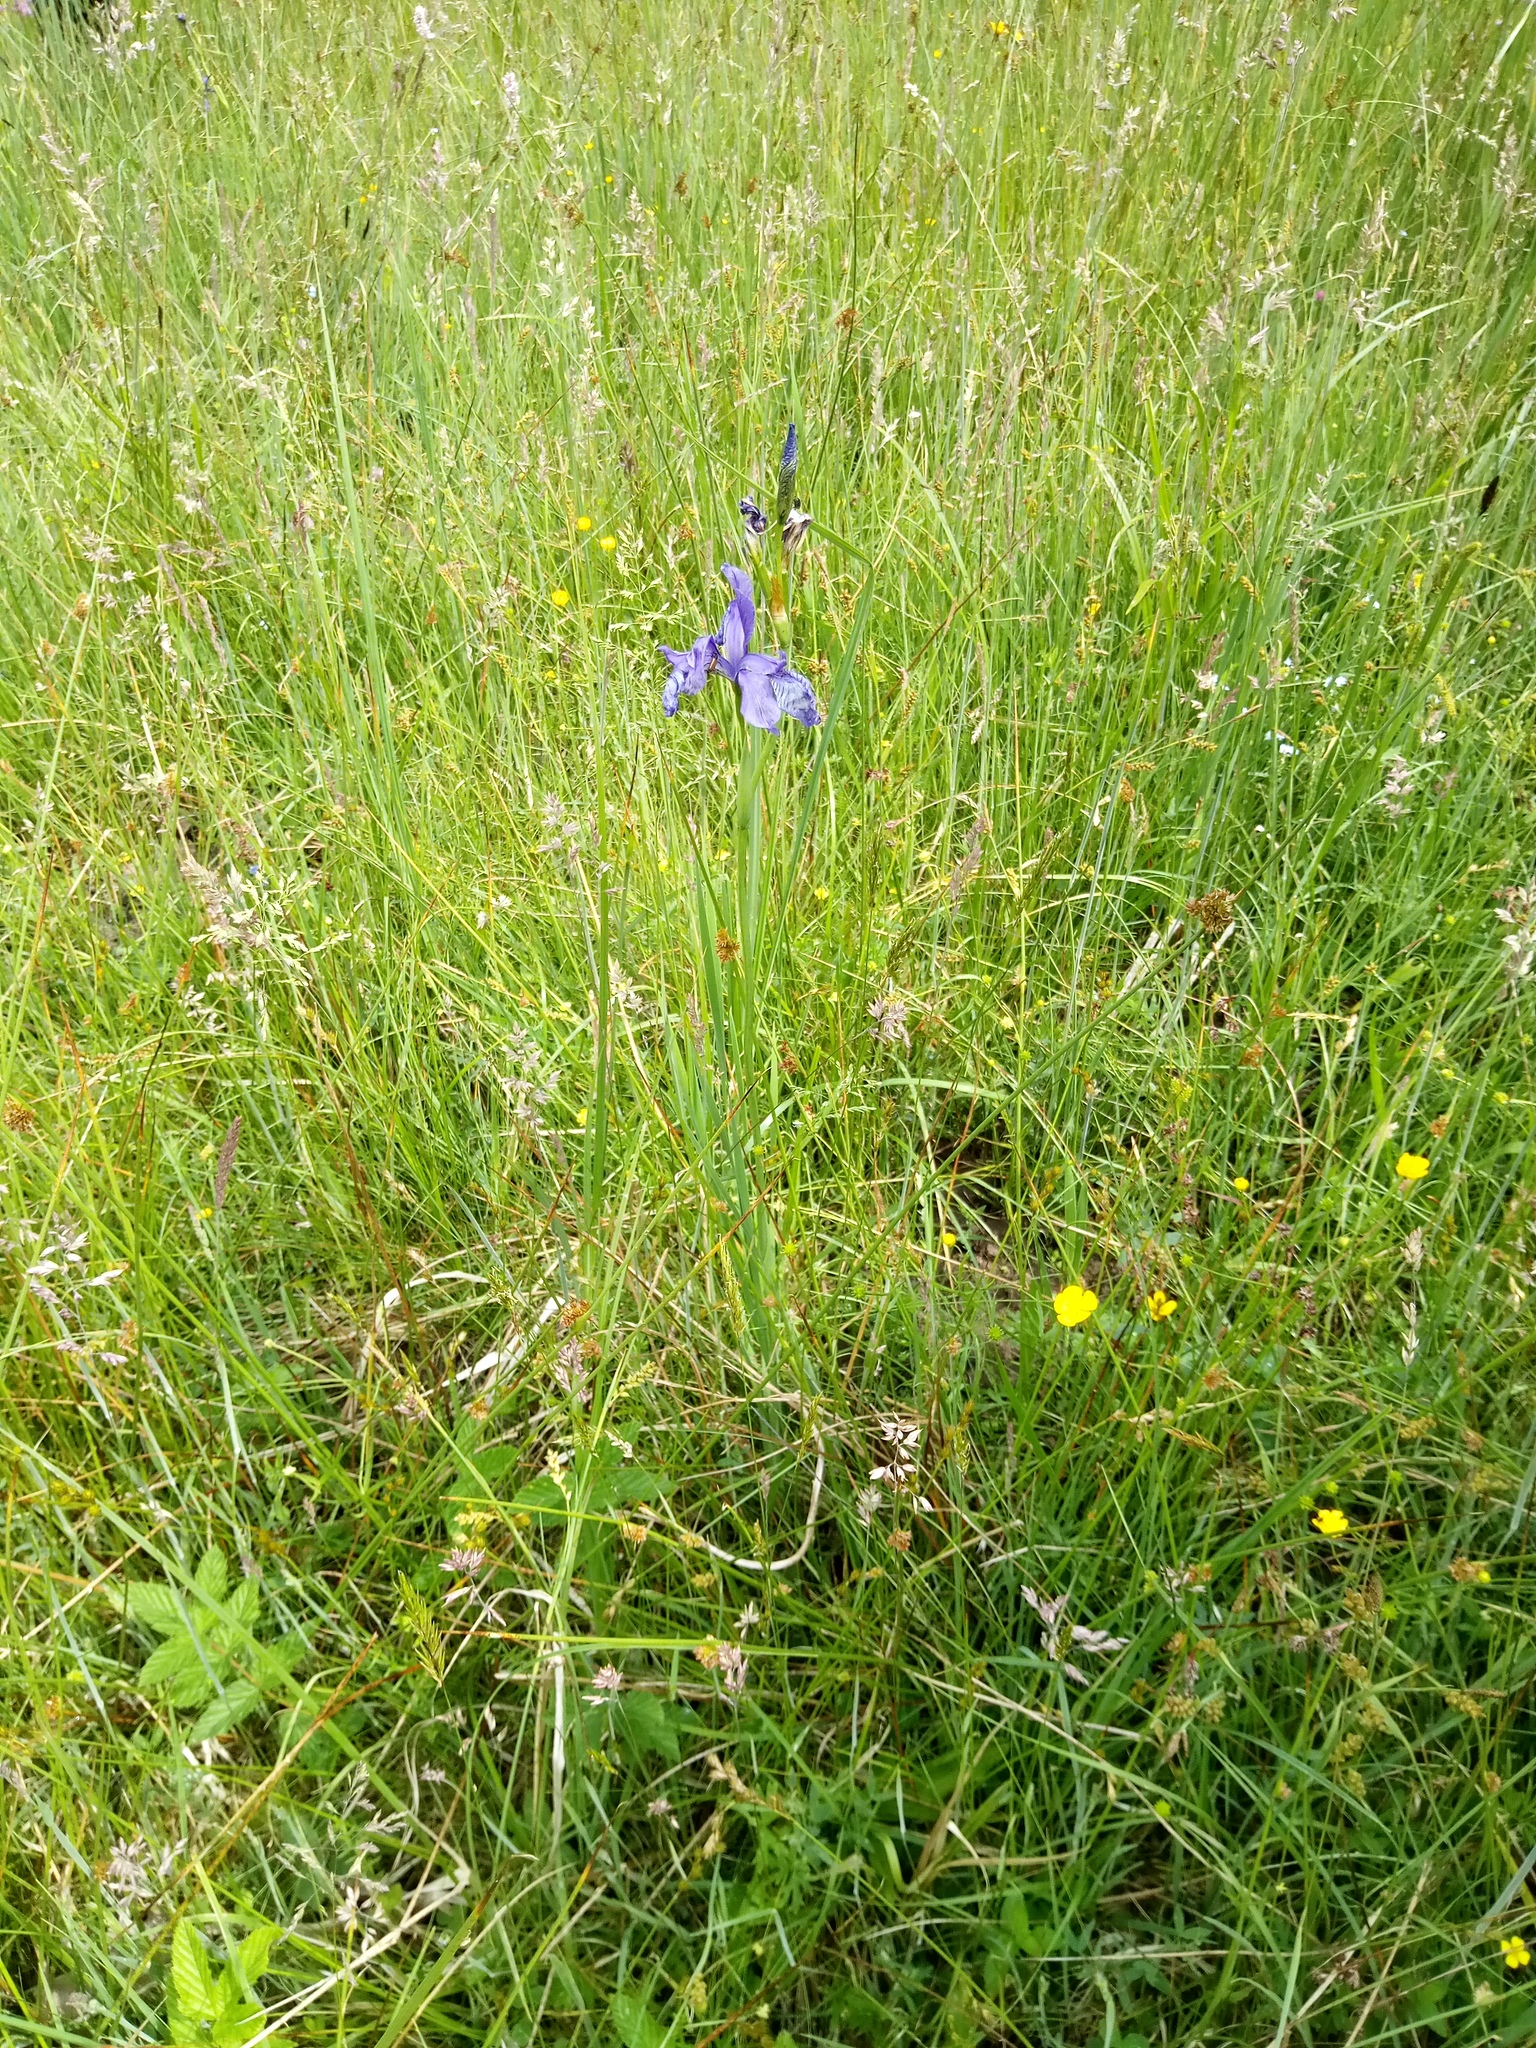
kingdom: Plantae
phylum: Tracheophyta
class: Liliopsida
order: Asparagales
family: Iridaceae
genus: Iris
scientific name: Iris sibirica
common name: Siberian iris
